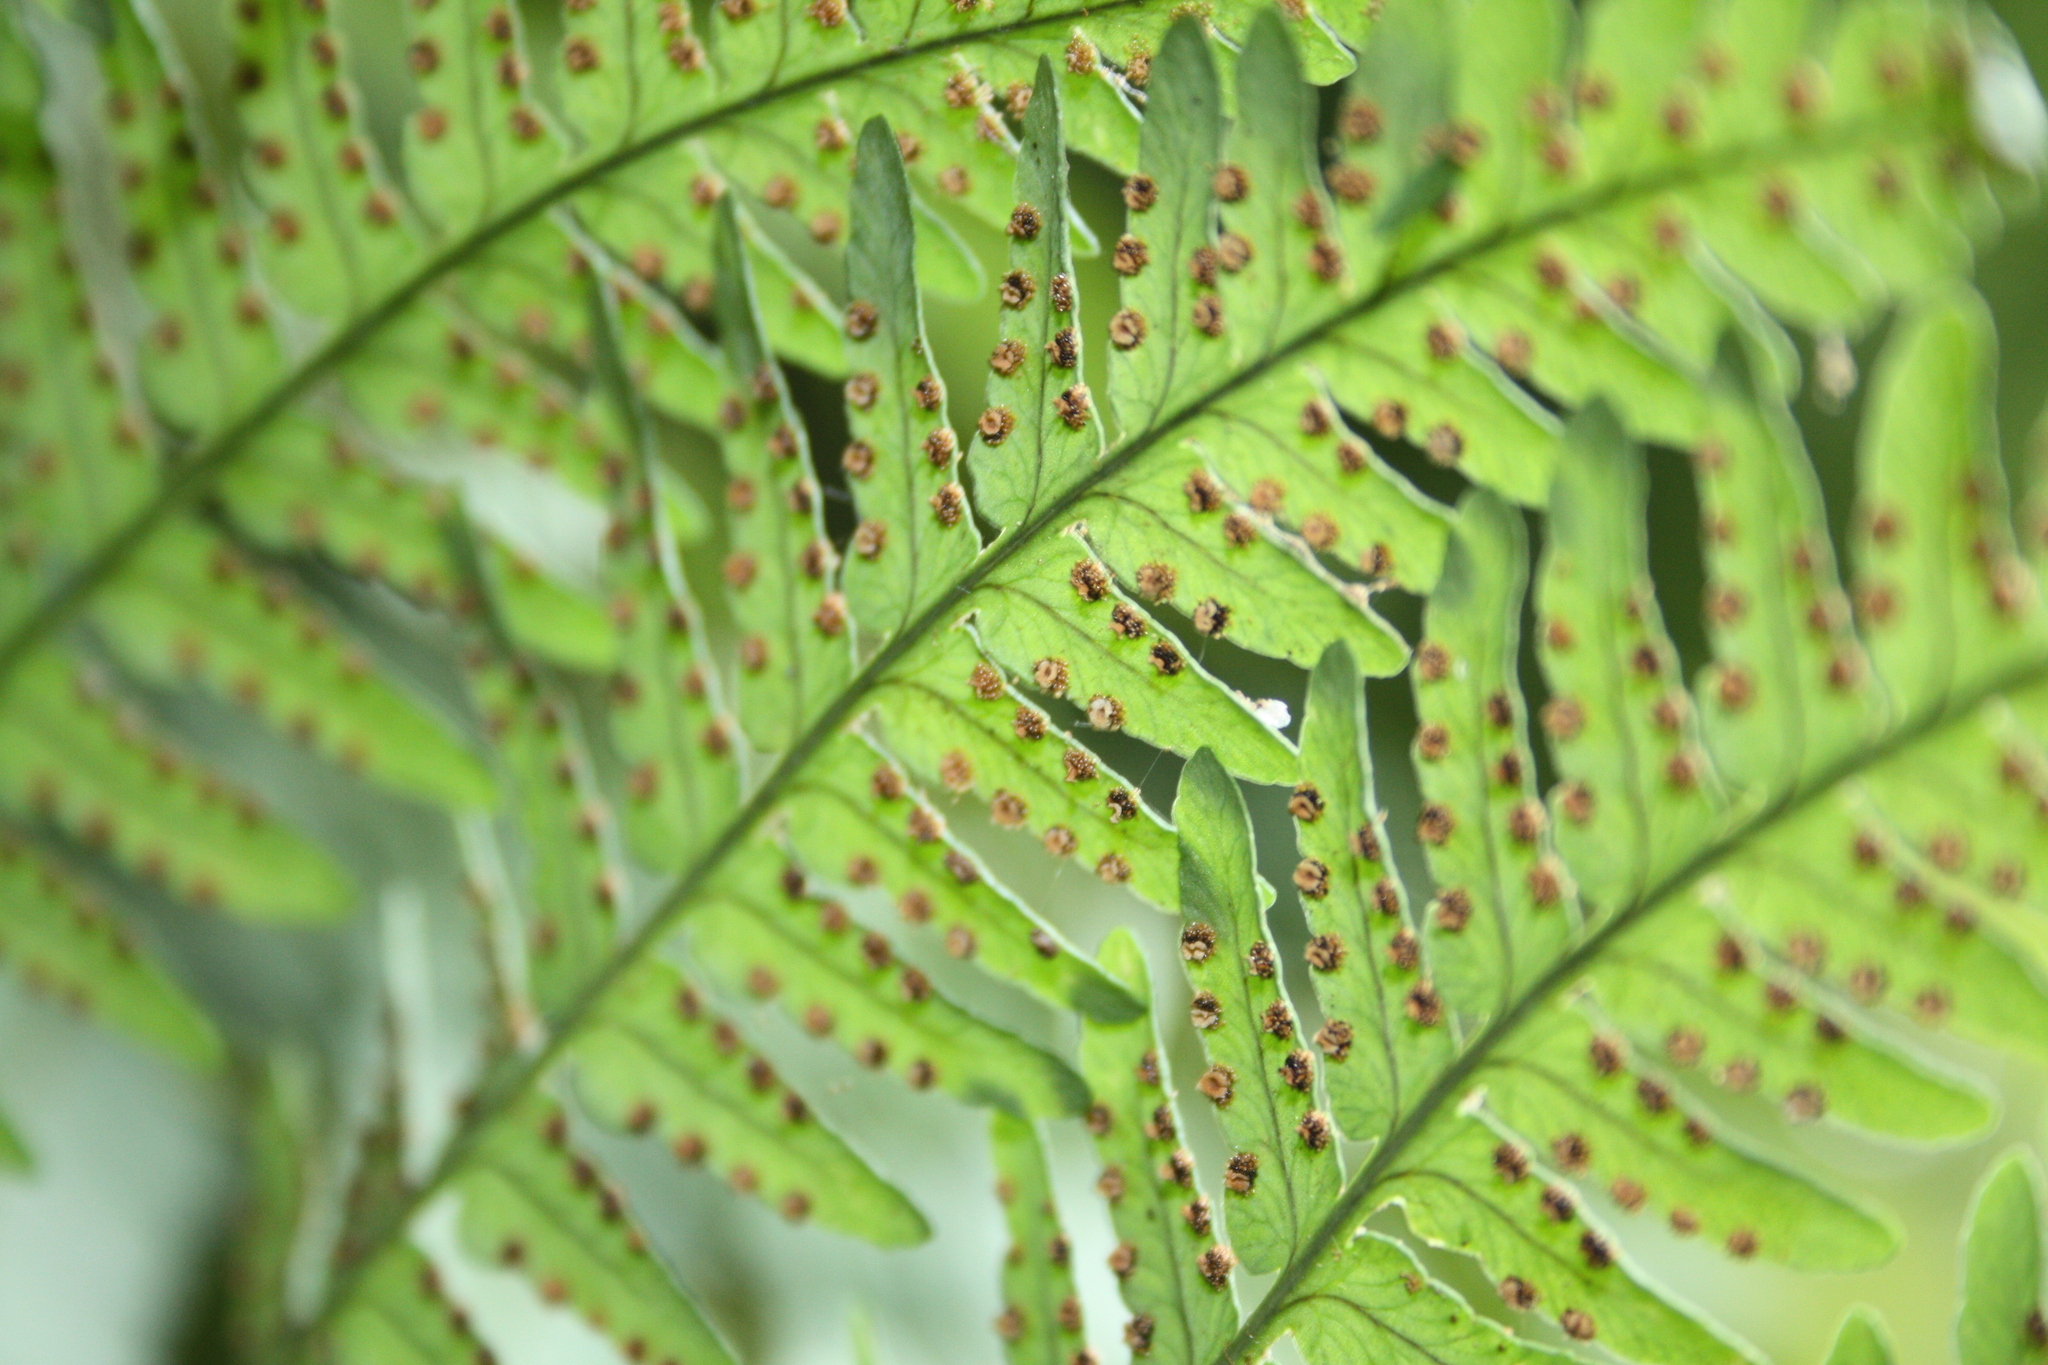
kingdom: Plantae
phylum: Tracheophyta
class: Polypodiopsida
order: Polypodiales
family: Dryopteridaceae
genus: Dryopteris
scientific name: Dryopteris marginalis
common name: Marginal wood fern
